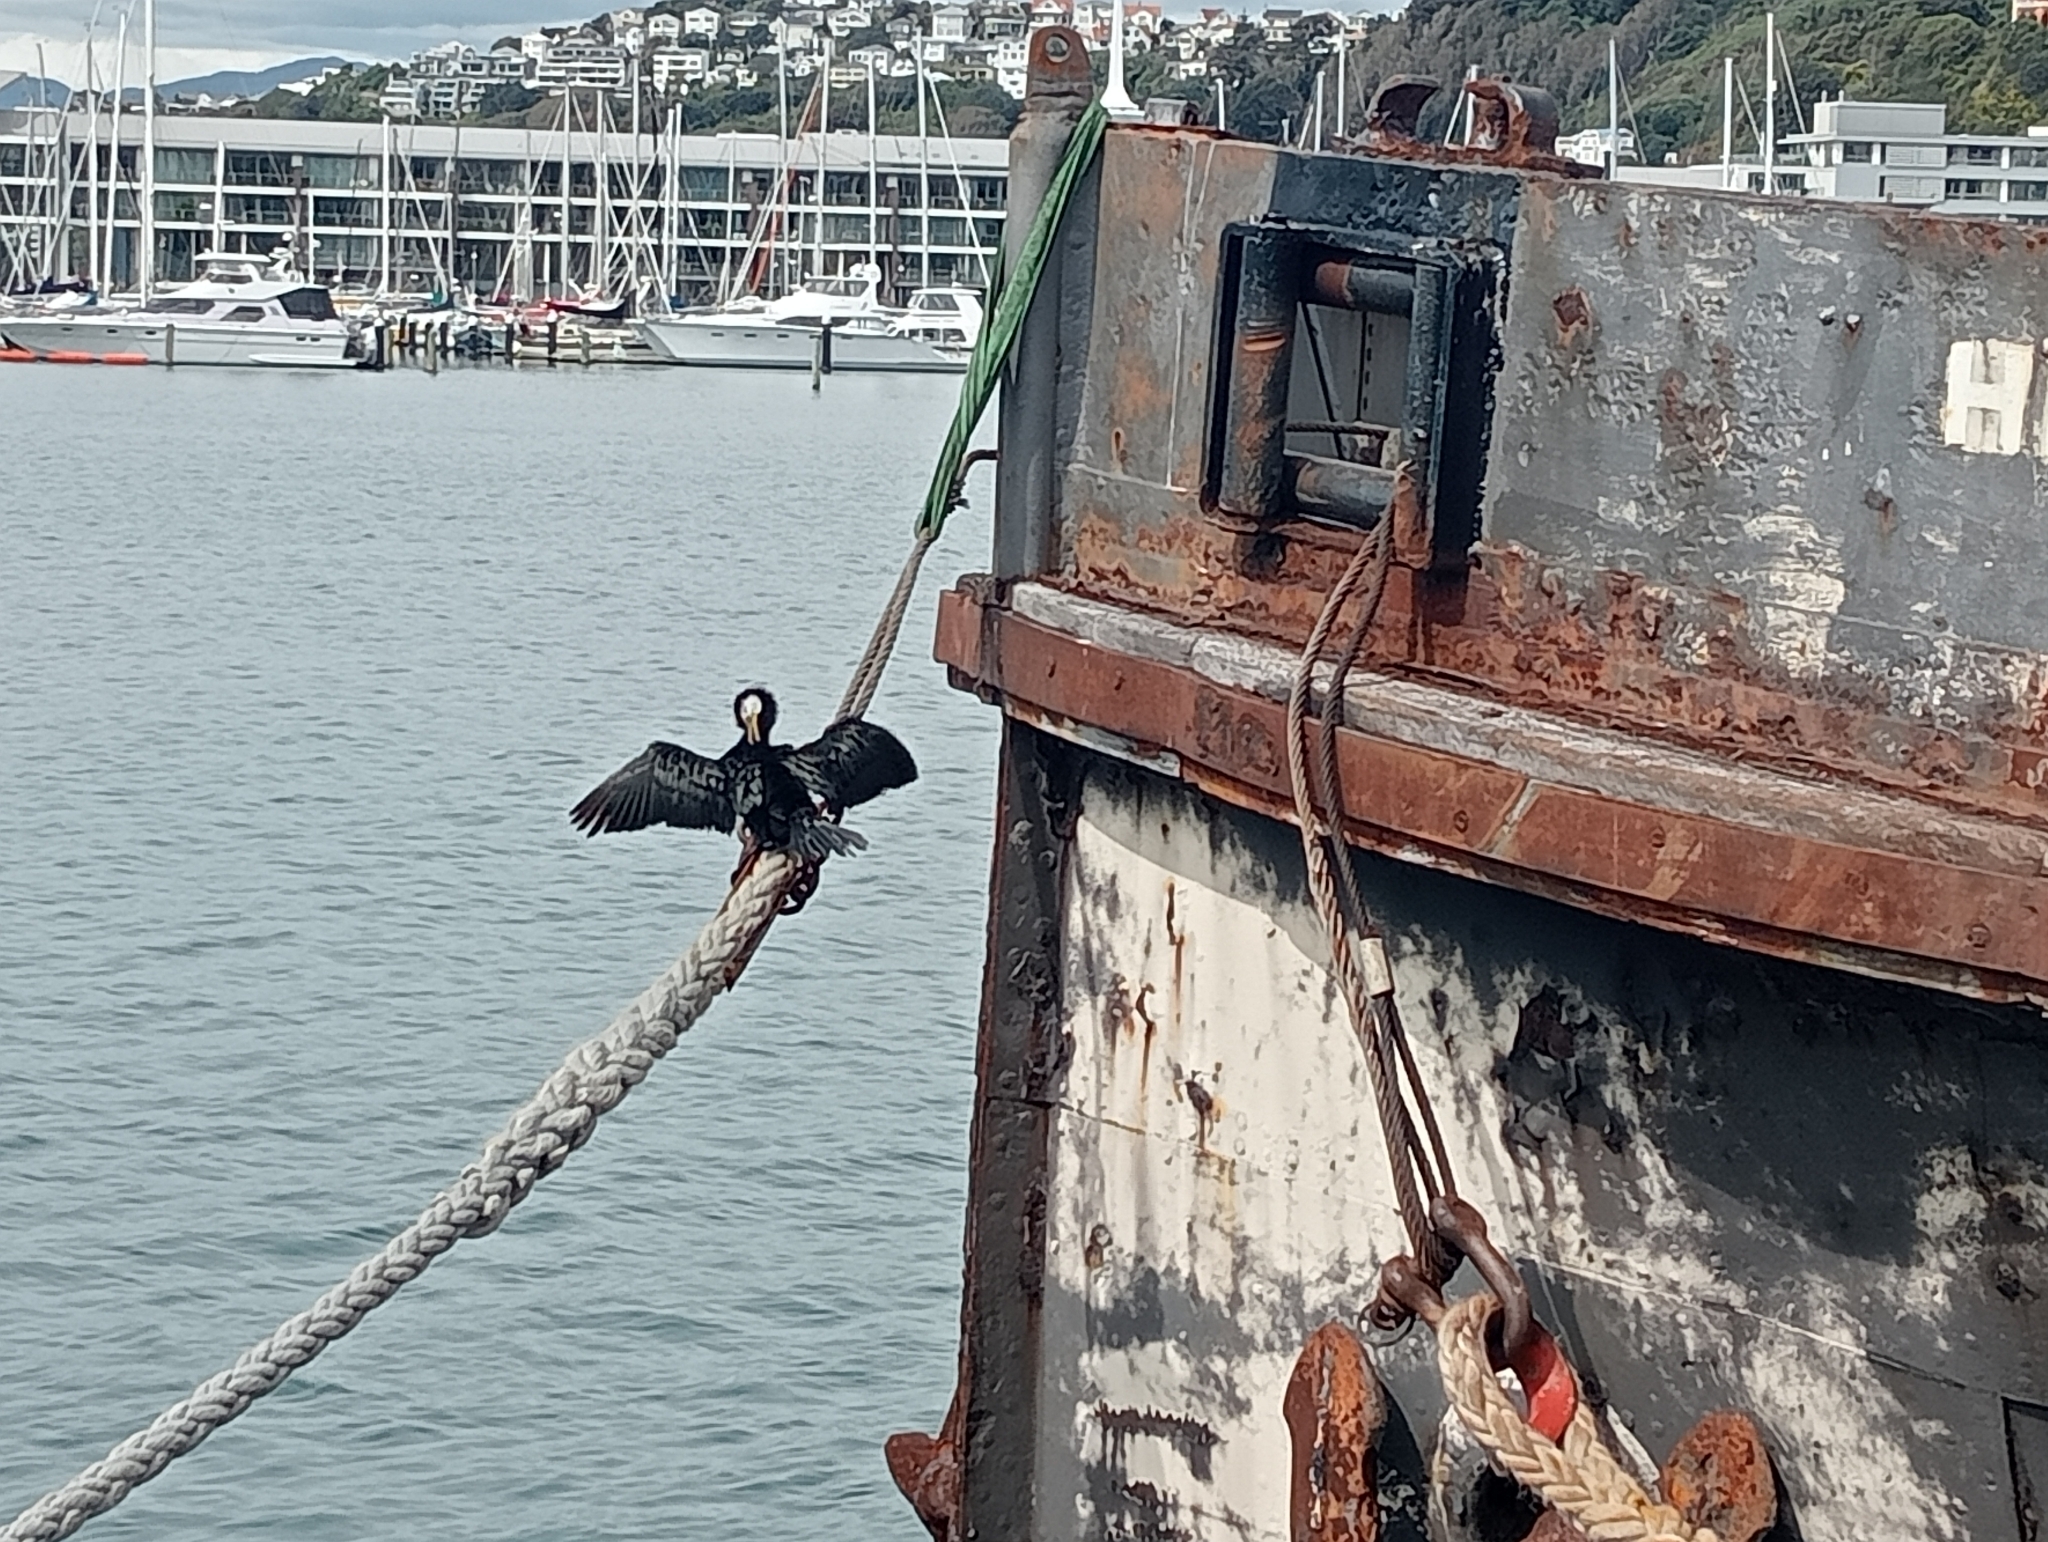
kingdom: Animalia
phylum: Chordata
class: Aves
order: Suliformes
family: Phalacrocoracidae
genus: Microcarbo
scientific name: Microcarbo melanoleucos
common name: Little pied cormorant
